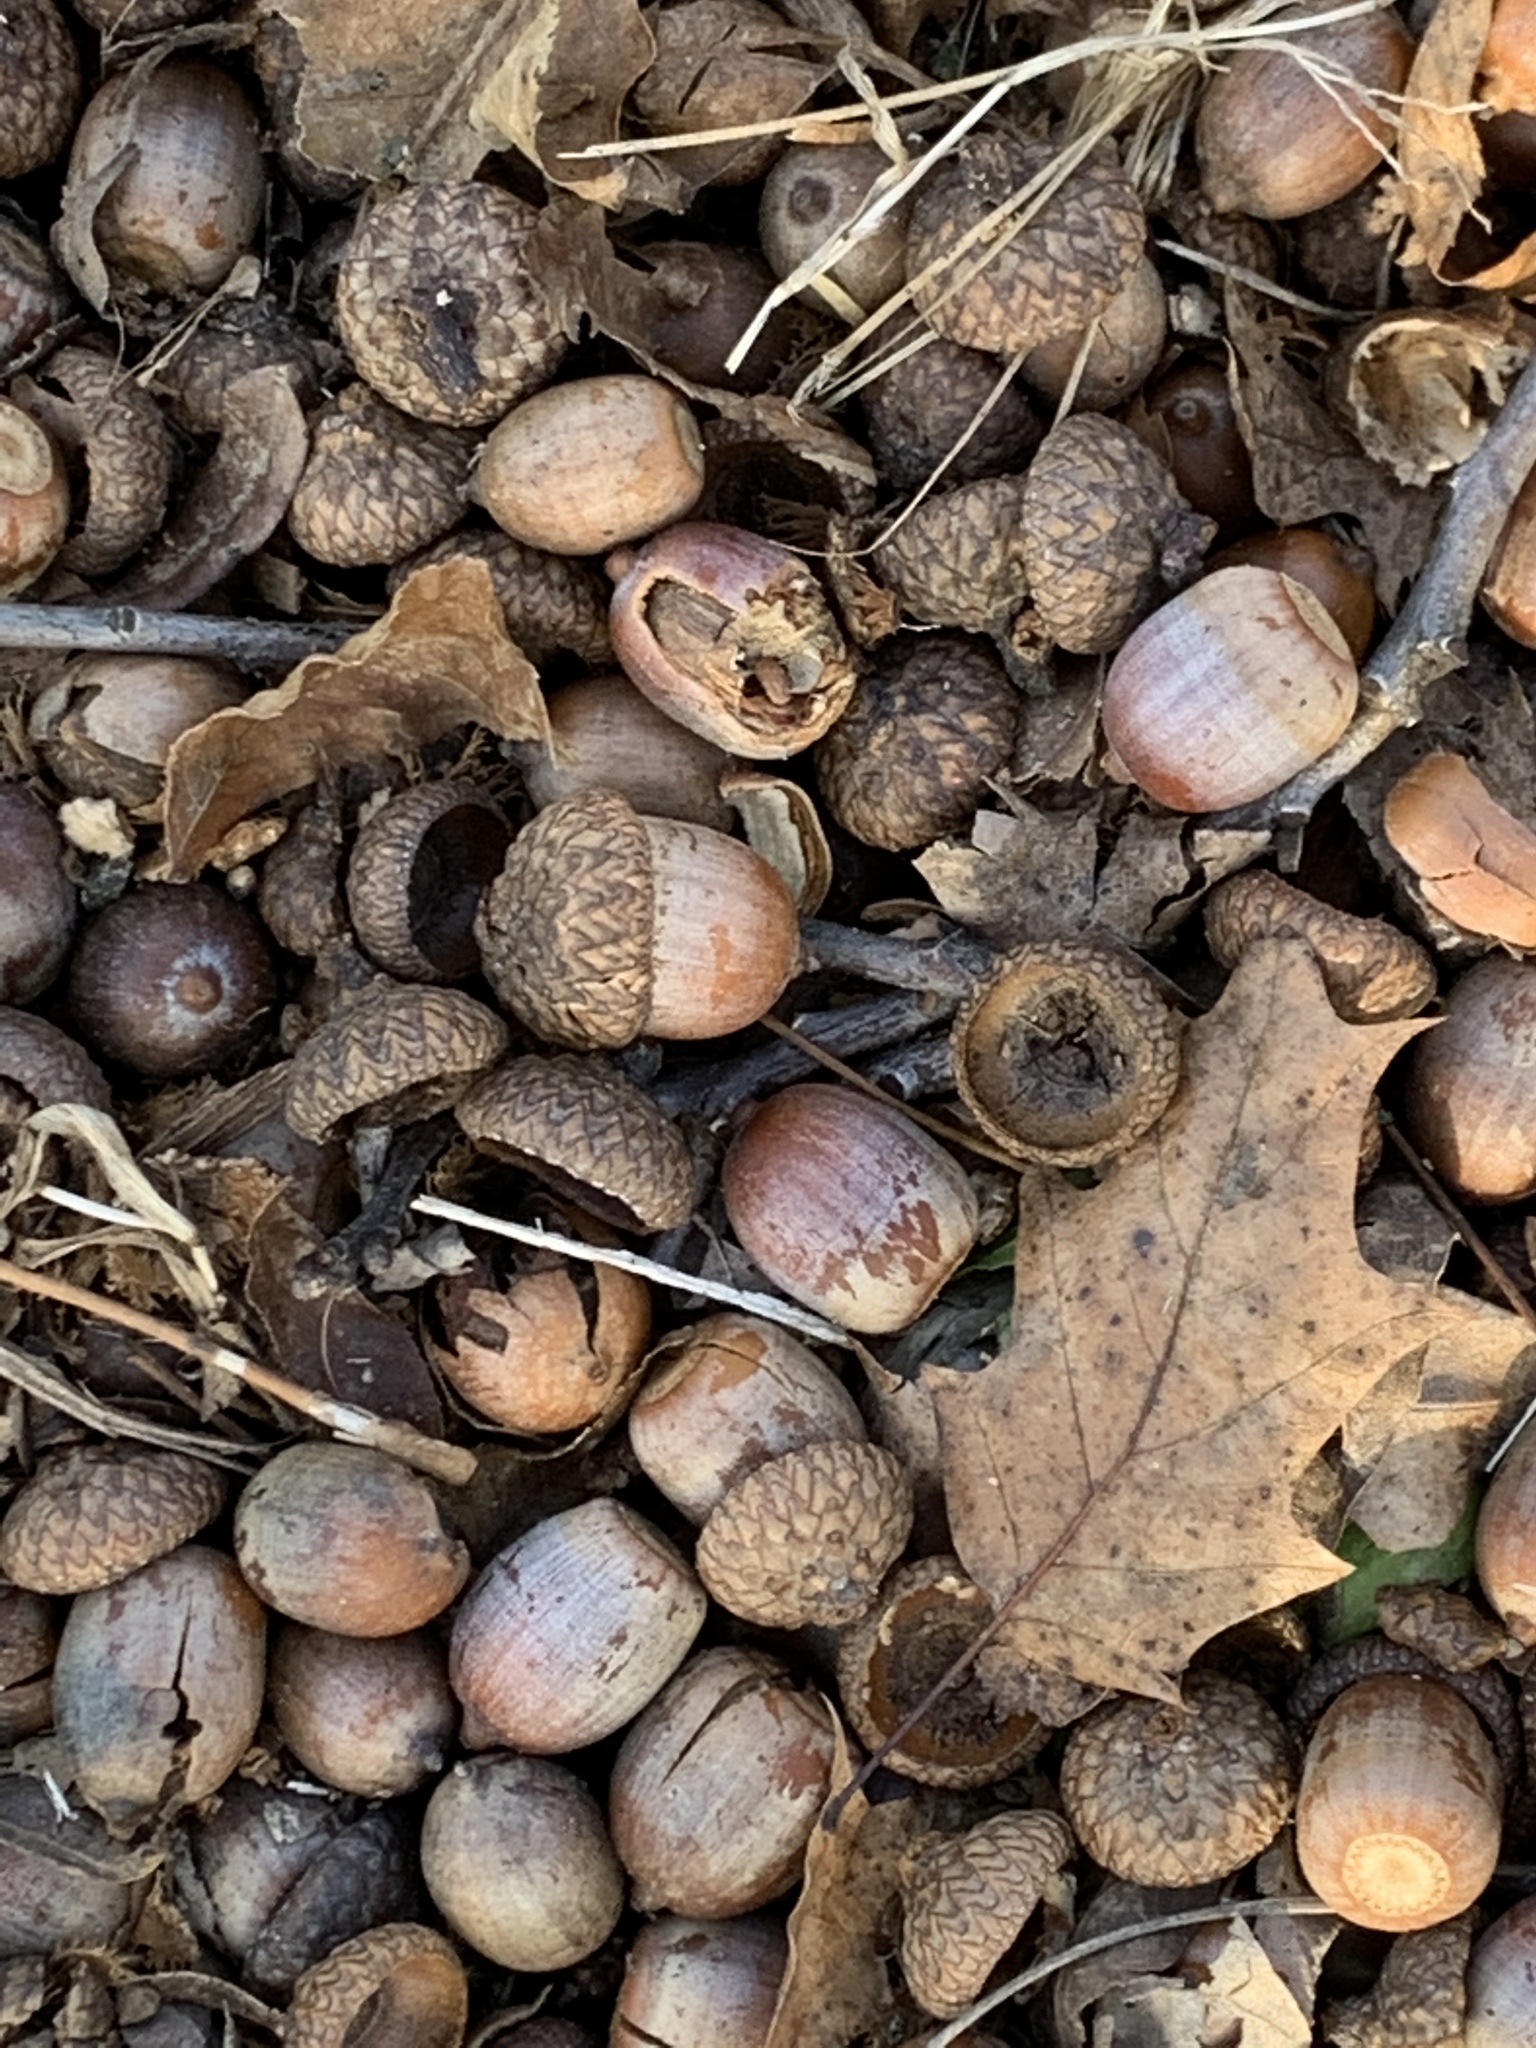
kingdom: Plantae
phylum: Tracheophyta
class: Magnoliopsida
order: Fagales
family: Fagaceae
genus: Quercus
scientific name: Quercus rubra
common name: Red oak
